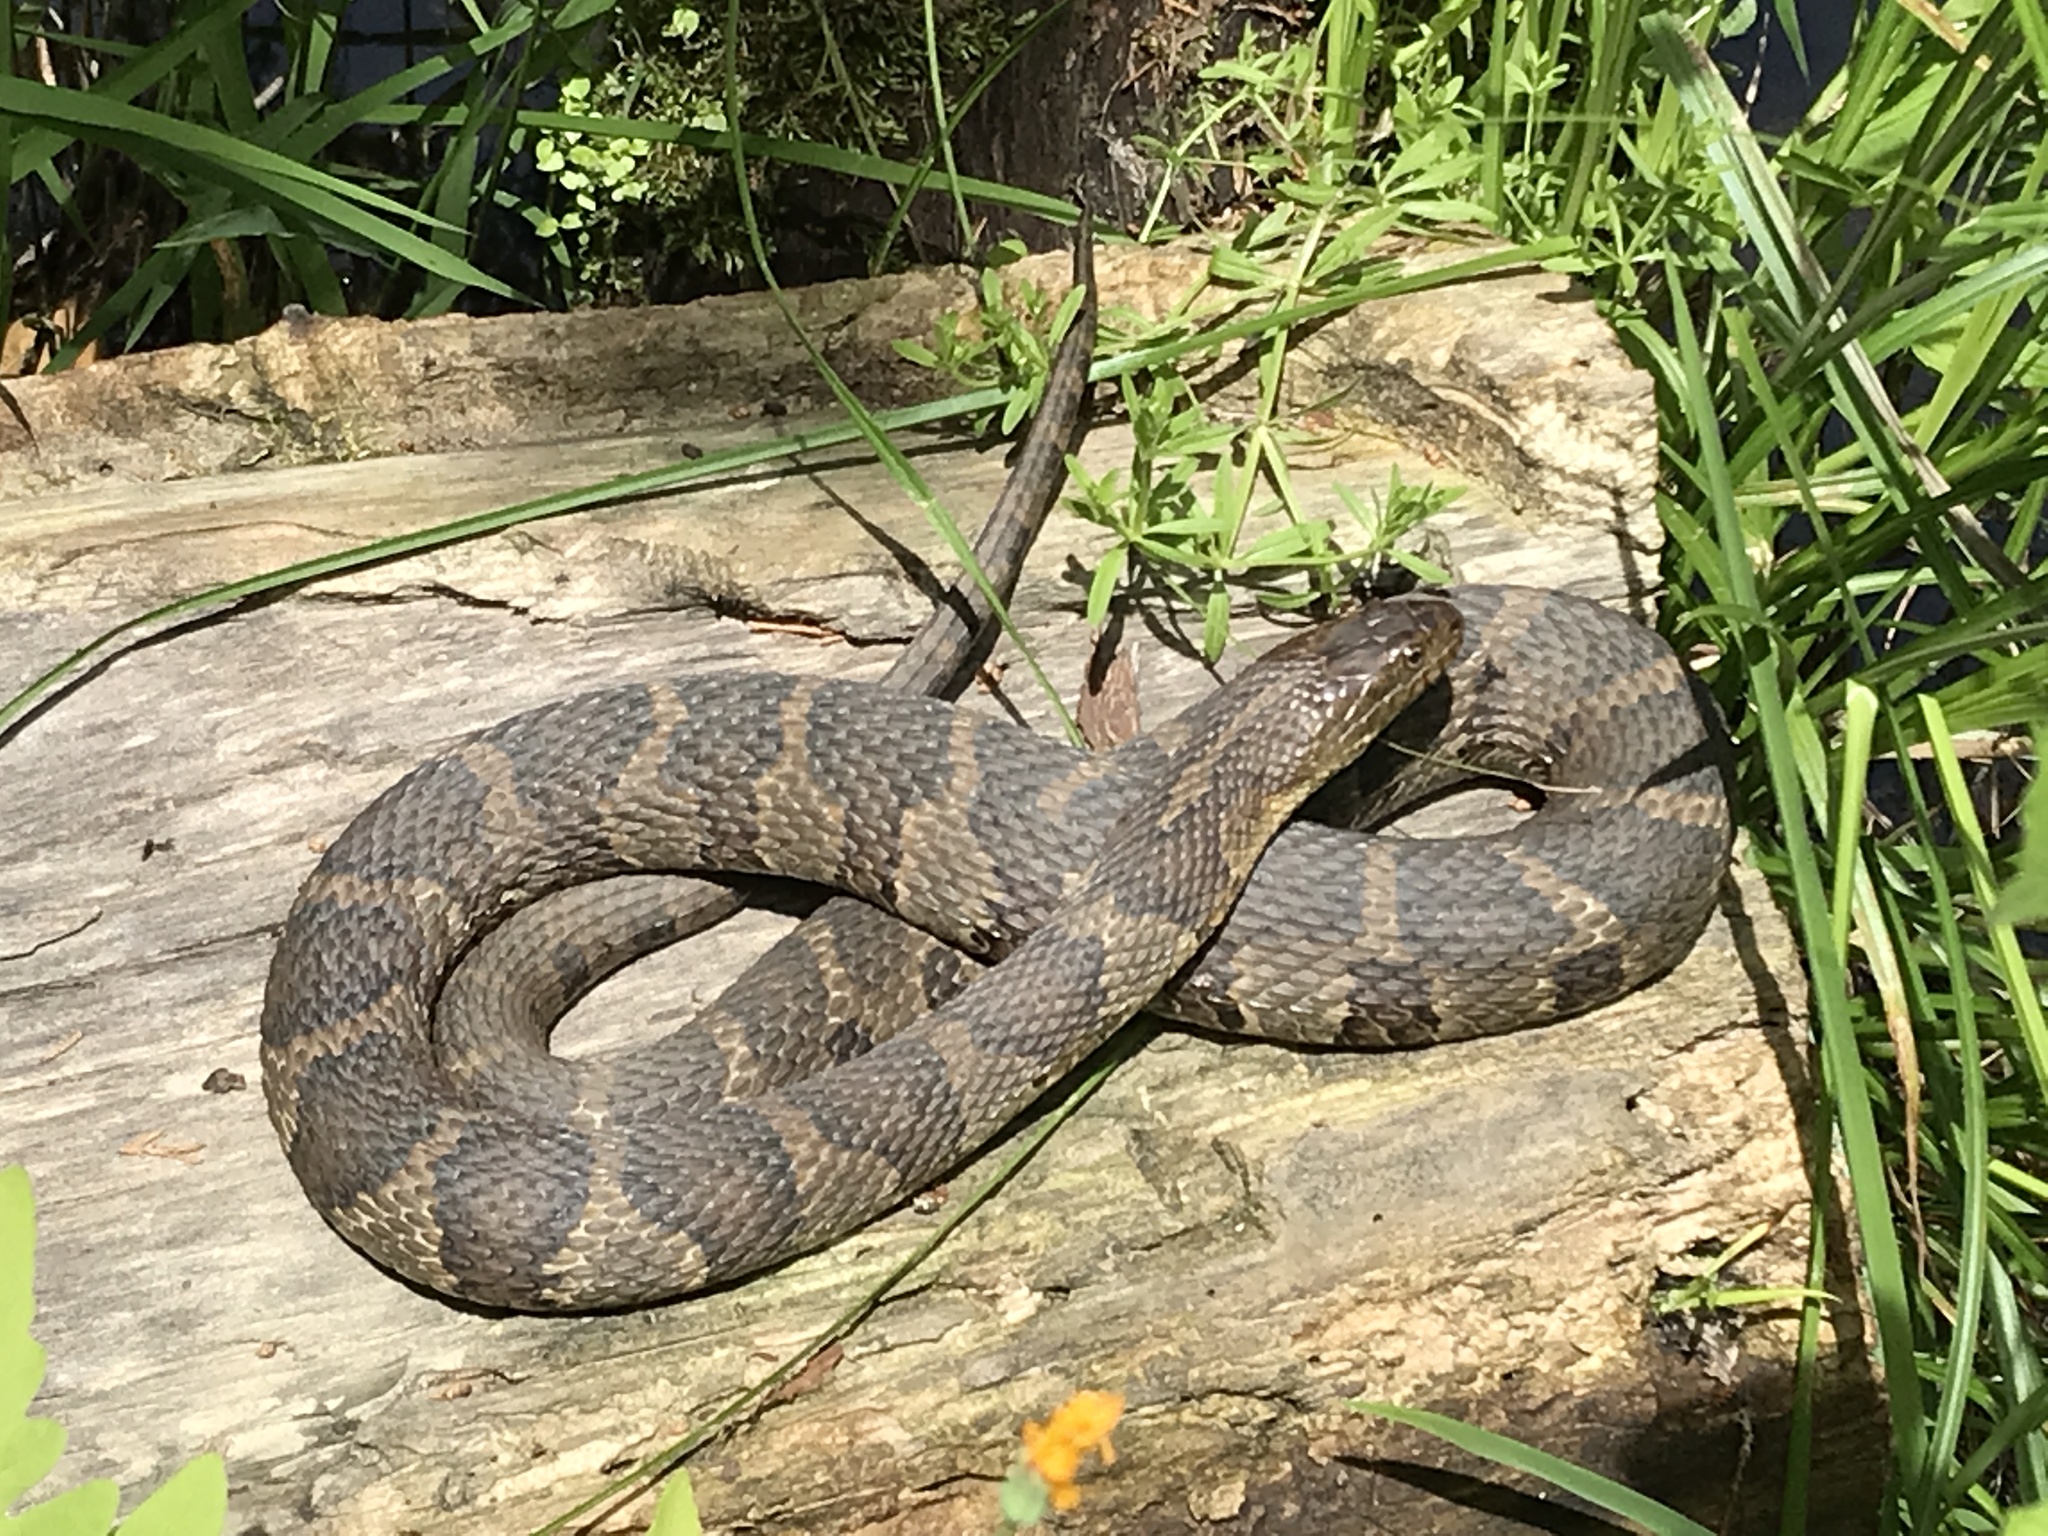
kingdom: Animalia
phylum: Chordata
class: Squamata
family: Colubridae
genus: Nerodia
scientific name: Nerodia sipedon
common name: Northern water snake
